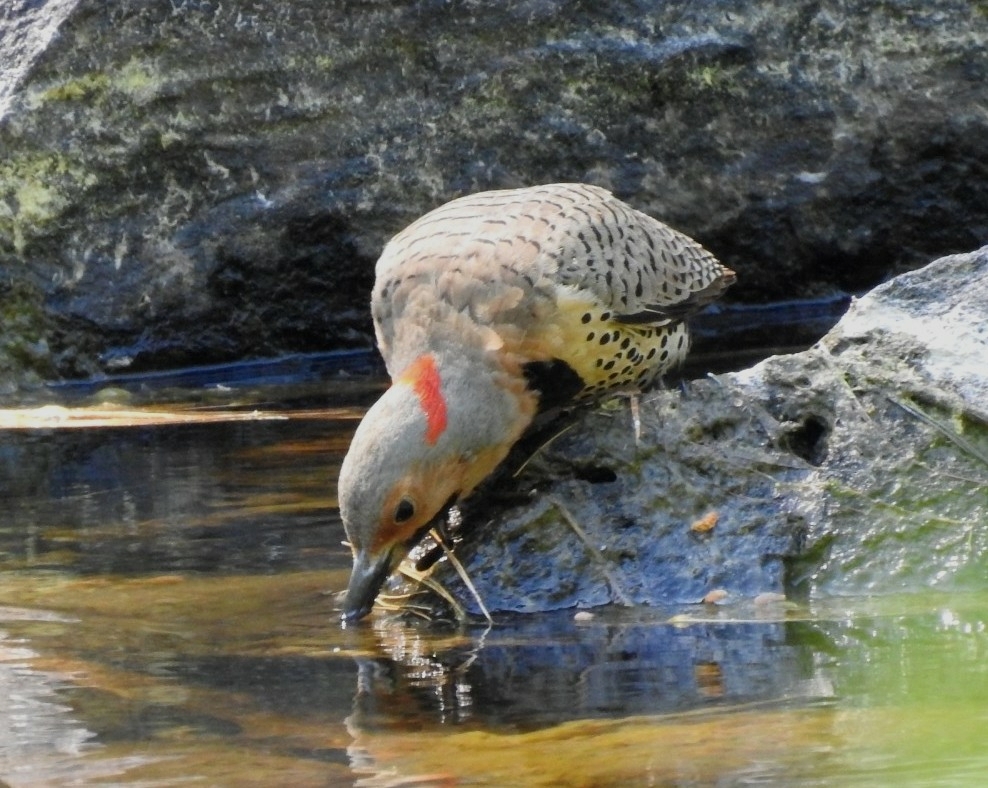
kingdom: Animalia
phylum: Chordata
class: Aves
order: Piciformes
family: Picidae
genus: Colaptes
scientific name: Colaptes auratus
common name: Northern flicker
